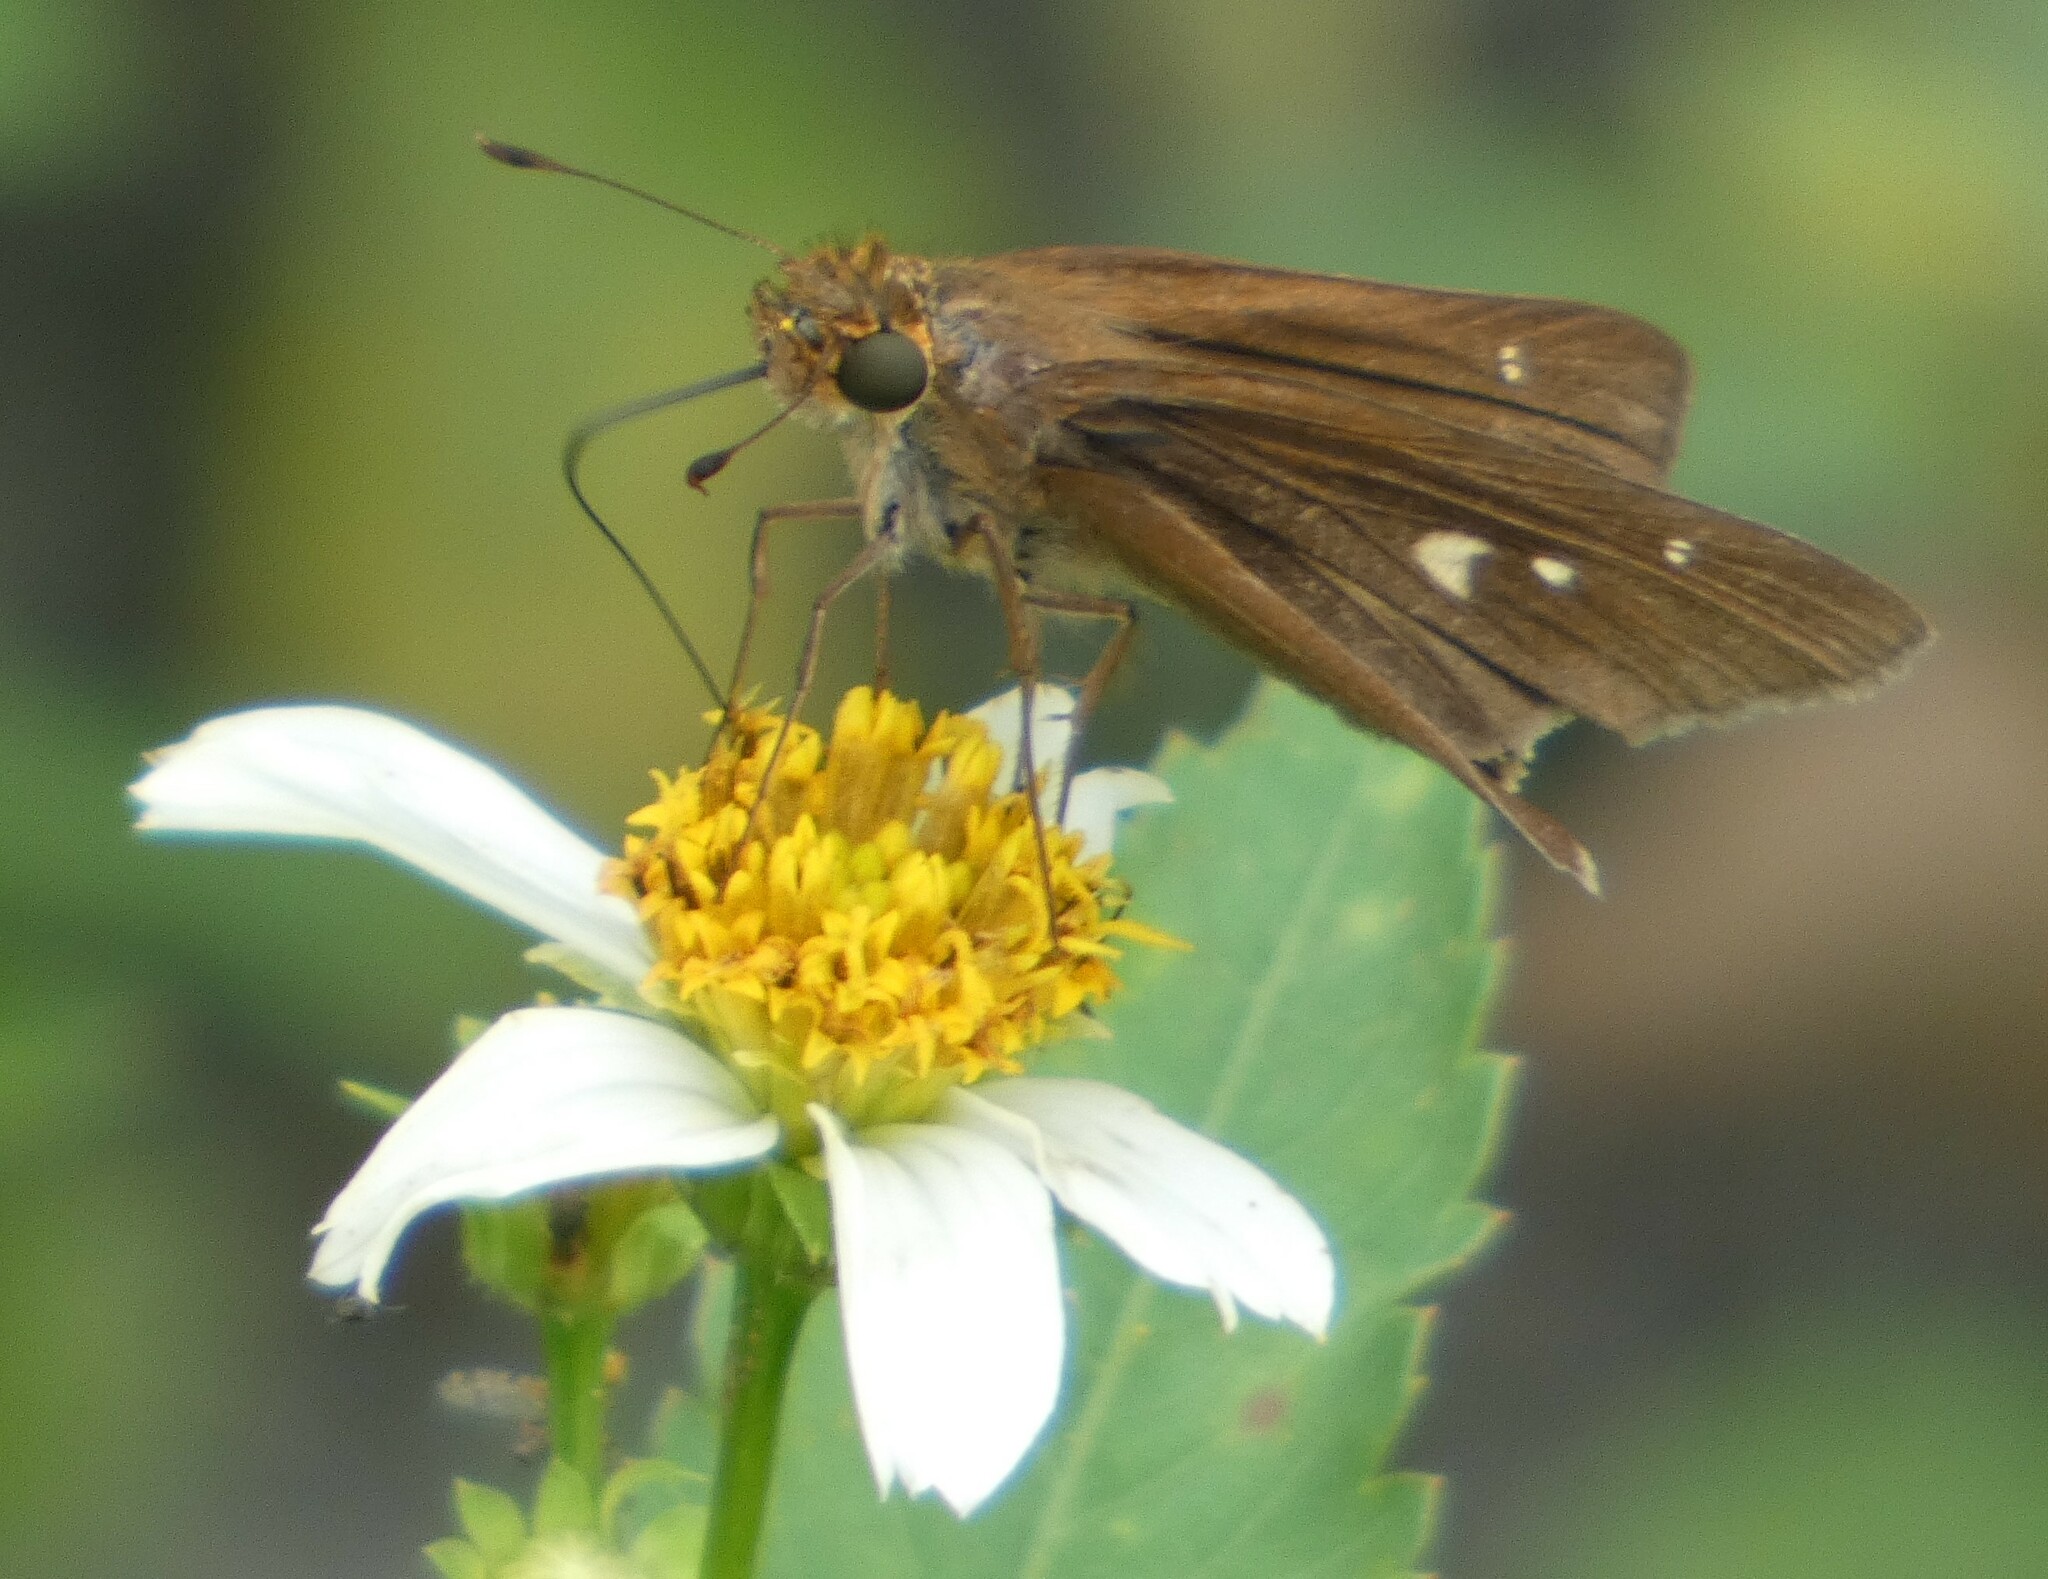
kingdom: Animalia
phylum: Arthropoda
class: Insecta
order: Lepidoptera
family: Hesperiidae
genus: Panoquina
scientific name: Panoquina ocola
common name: Ocola skipper
